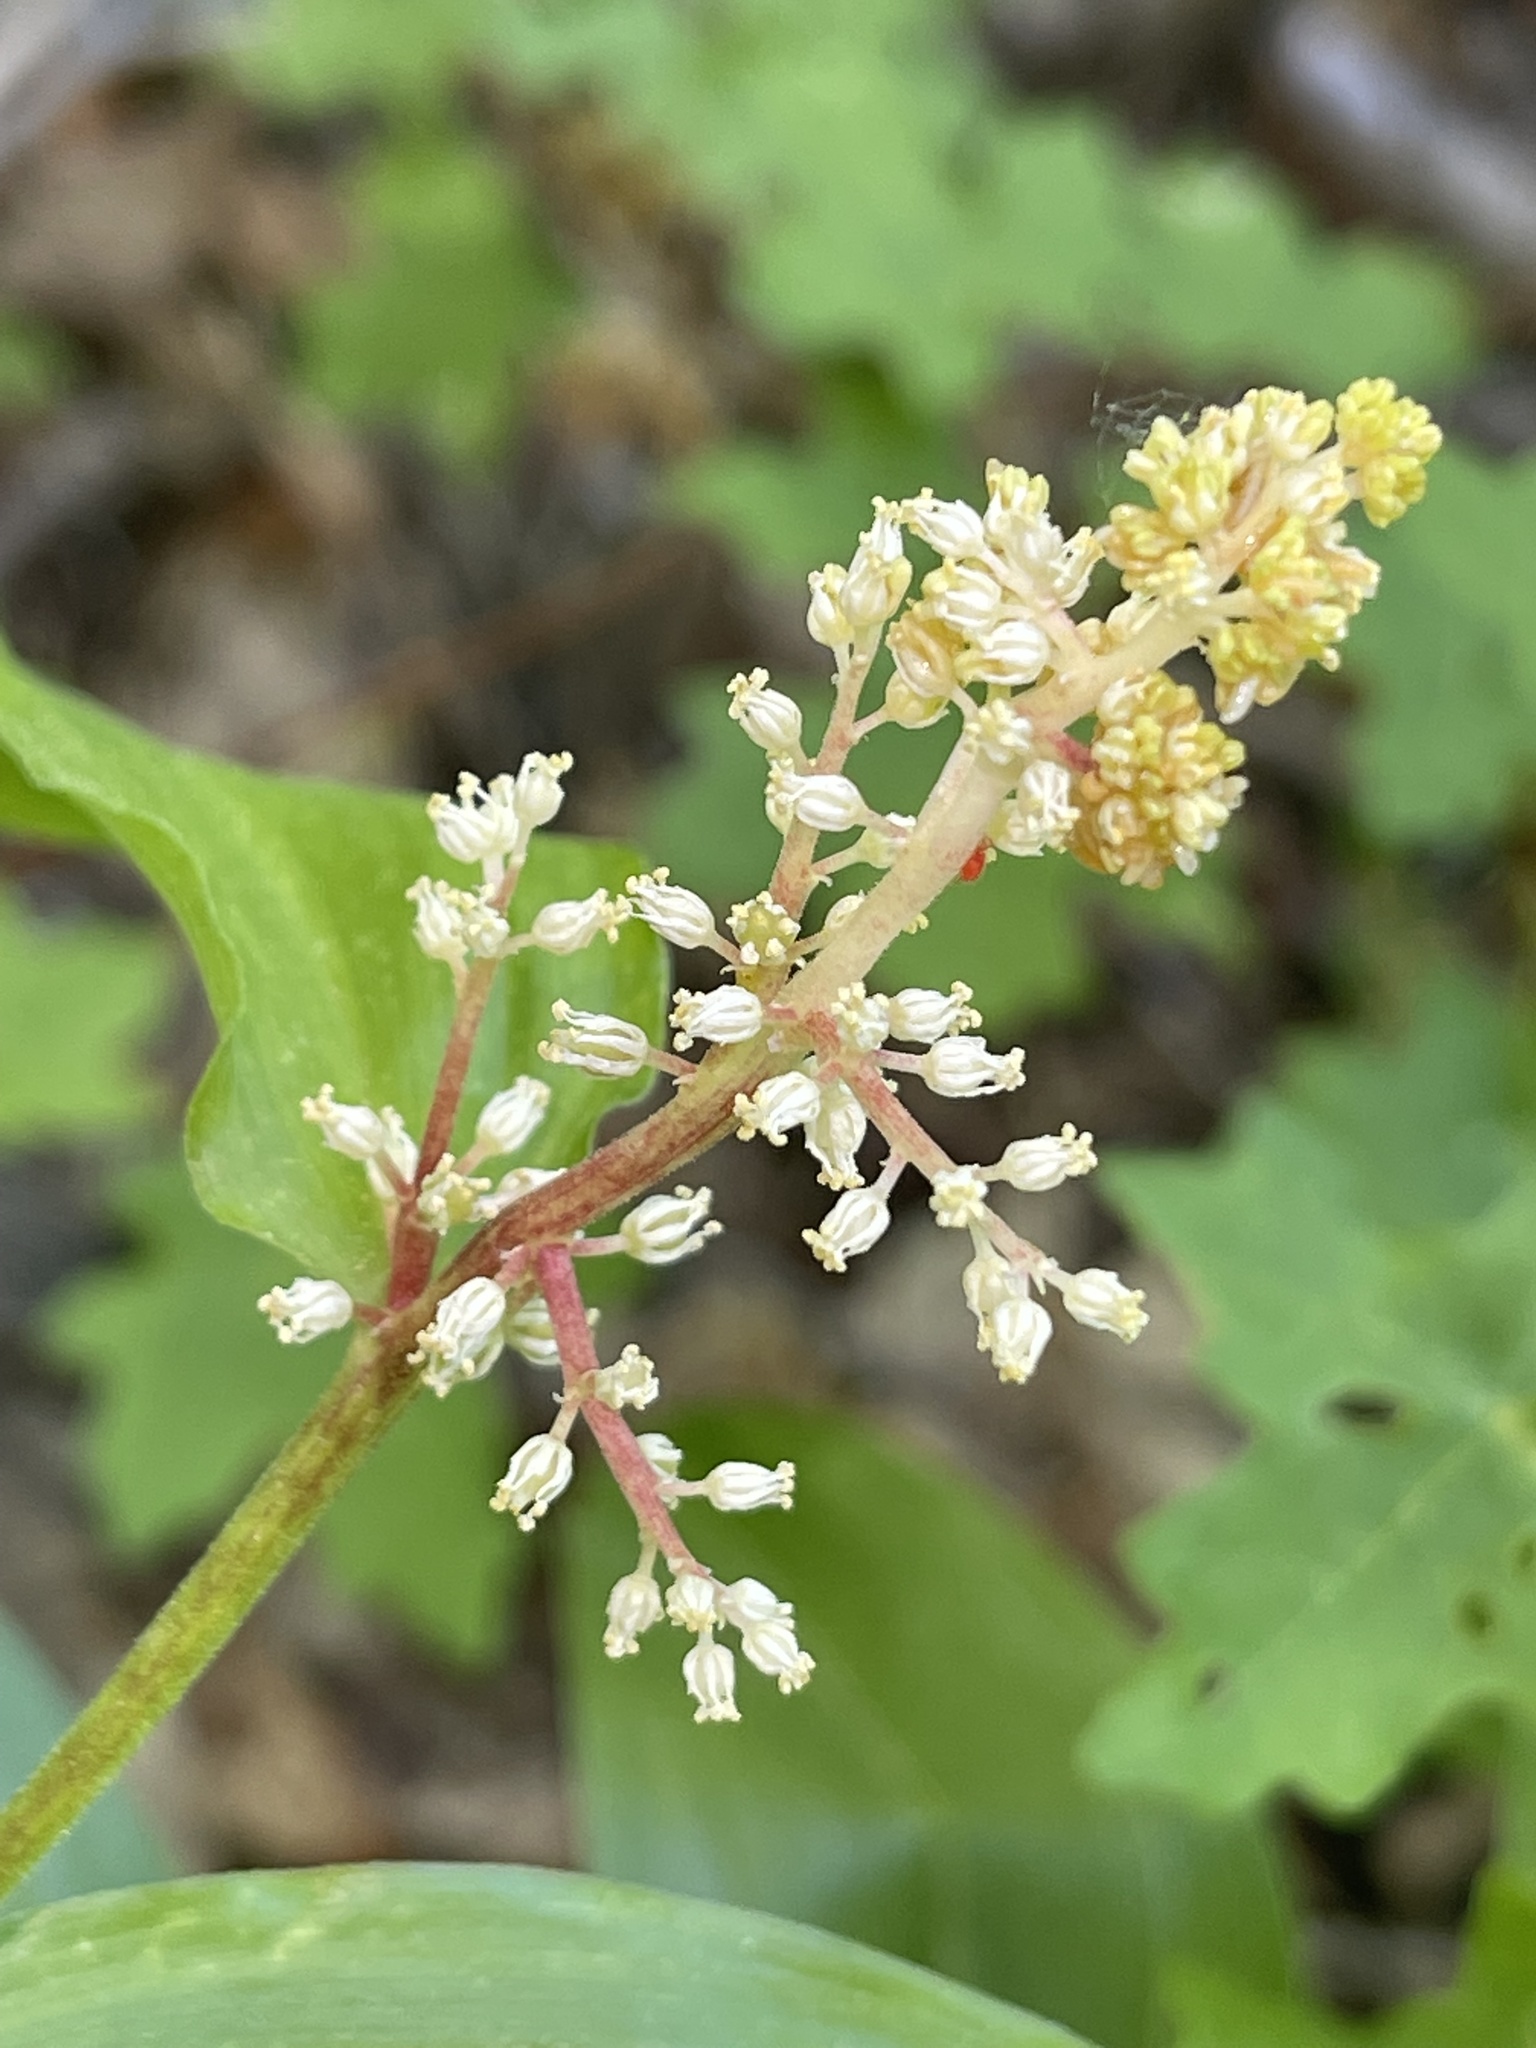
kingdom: Plantae
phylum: Tracheophyta
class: Liliopsida
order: Asparagales
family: Asparagaceae
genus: Maianthemum
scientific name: Maianthemum racemosum
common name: False spikenard
